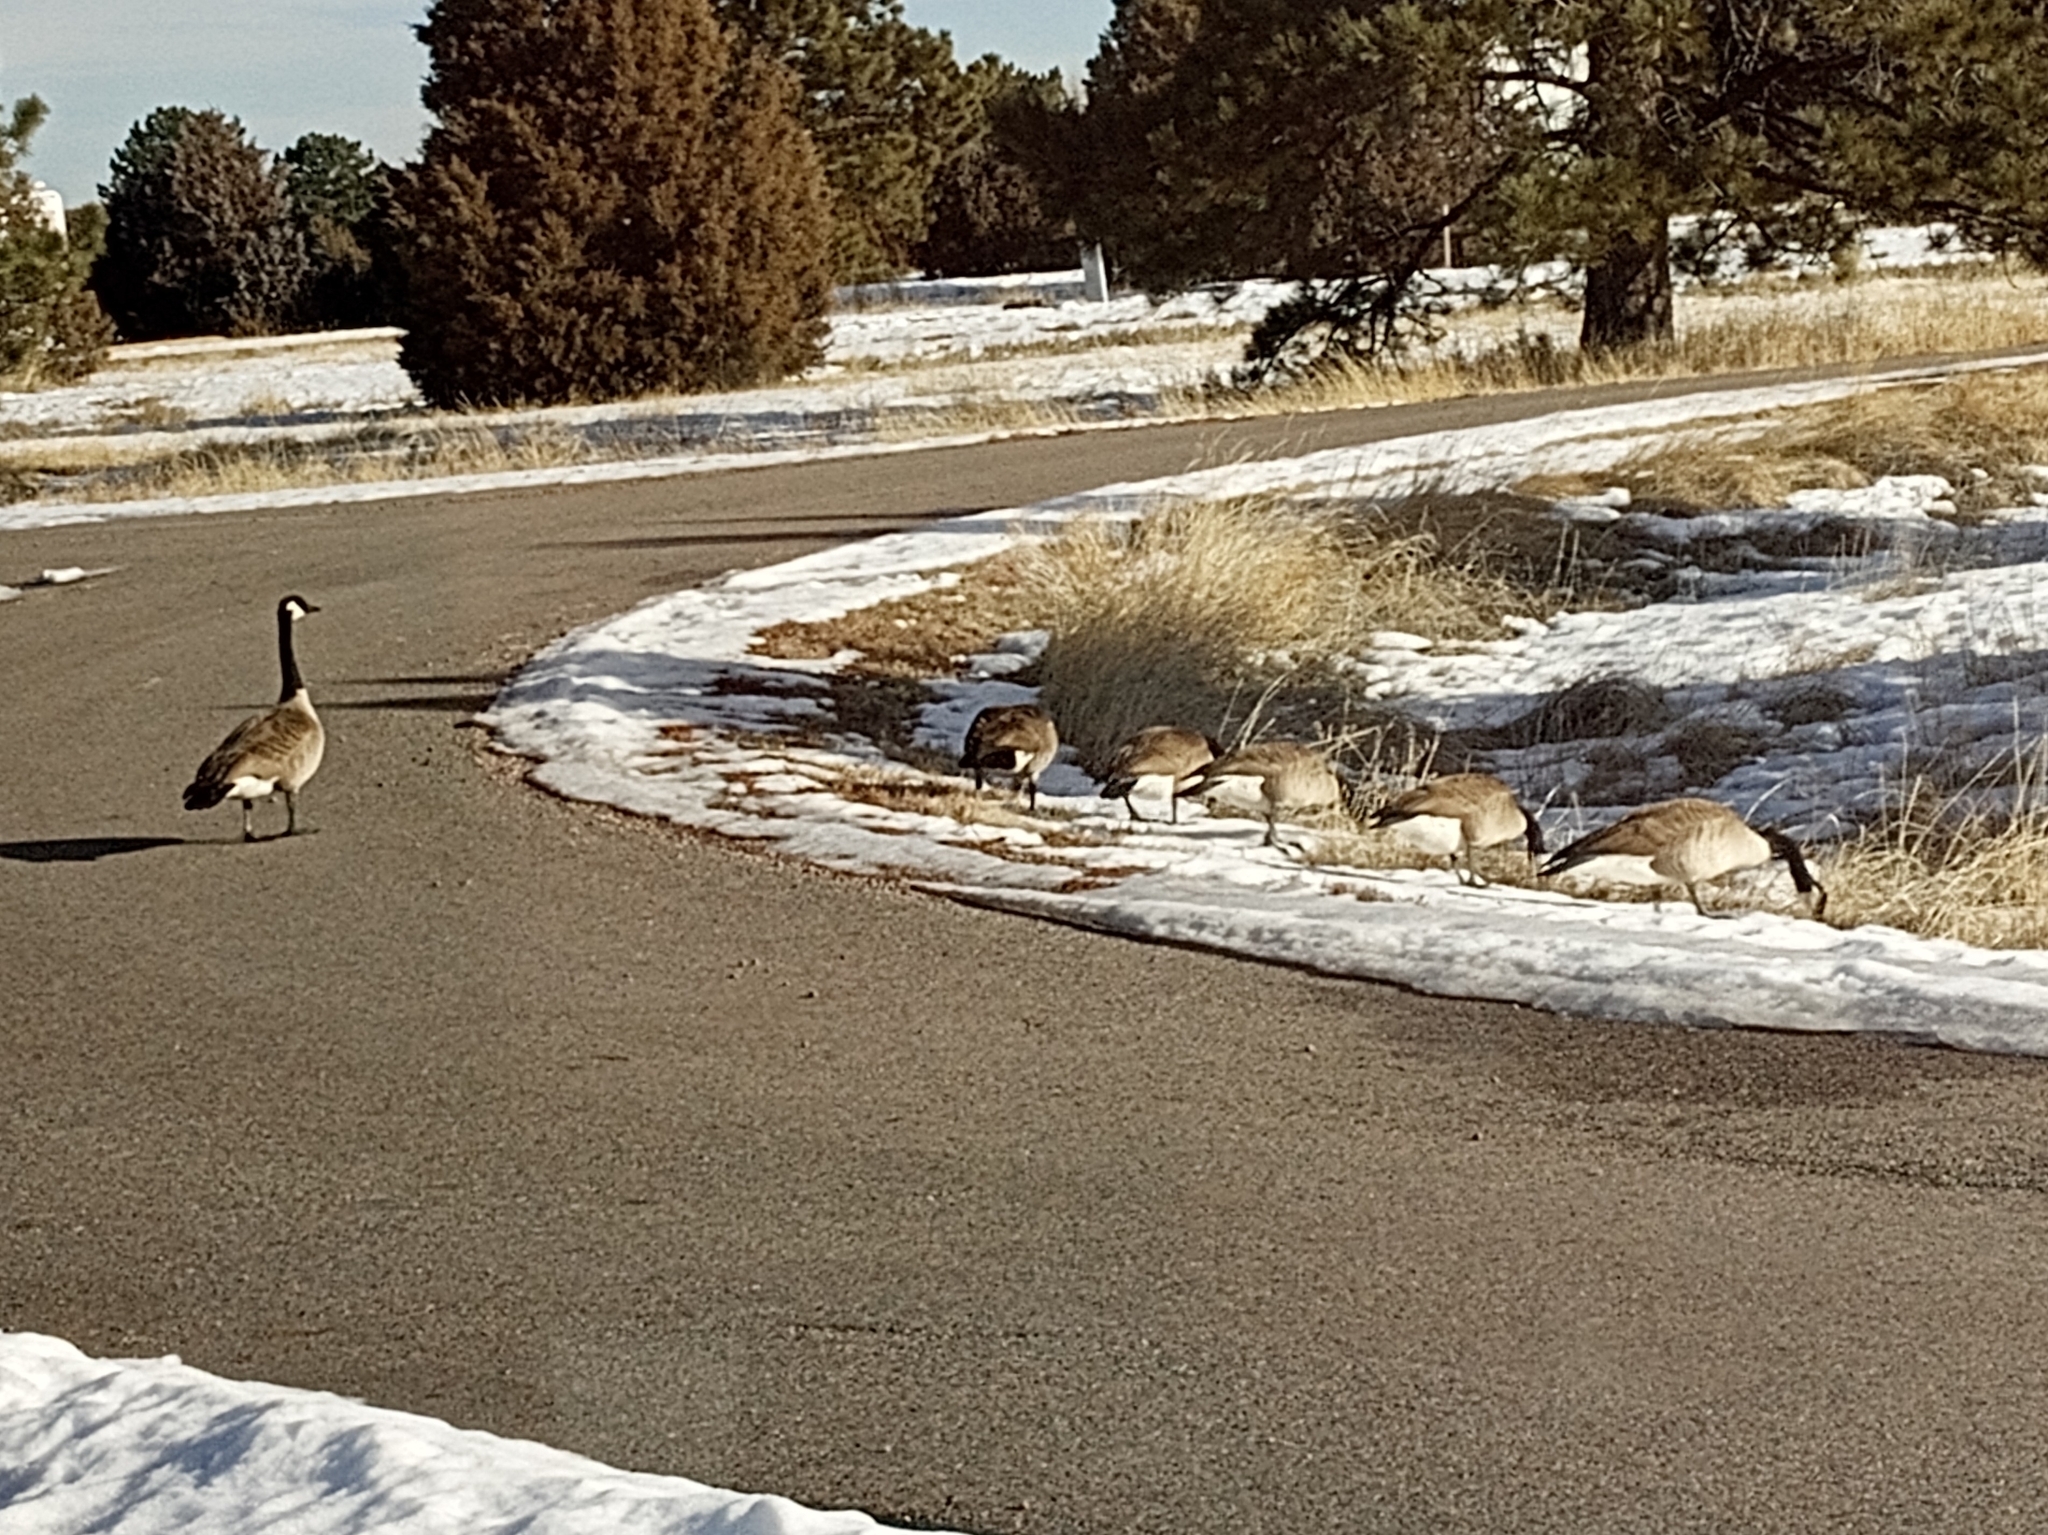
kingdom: Animalia
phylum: Chordata
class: Aves
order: Anseriformes
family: Anatidae
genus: Branta
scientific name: Branta canadensis
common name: Canada goose
